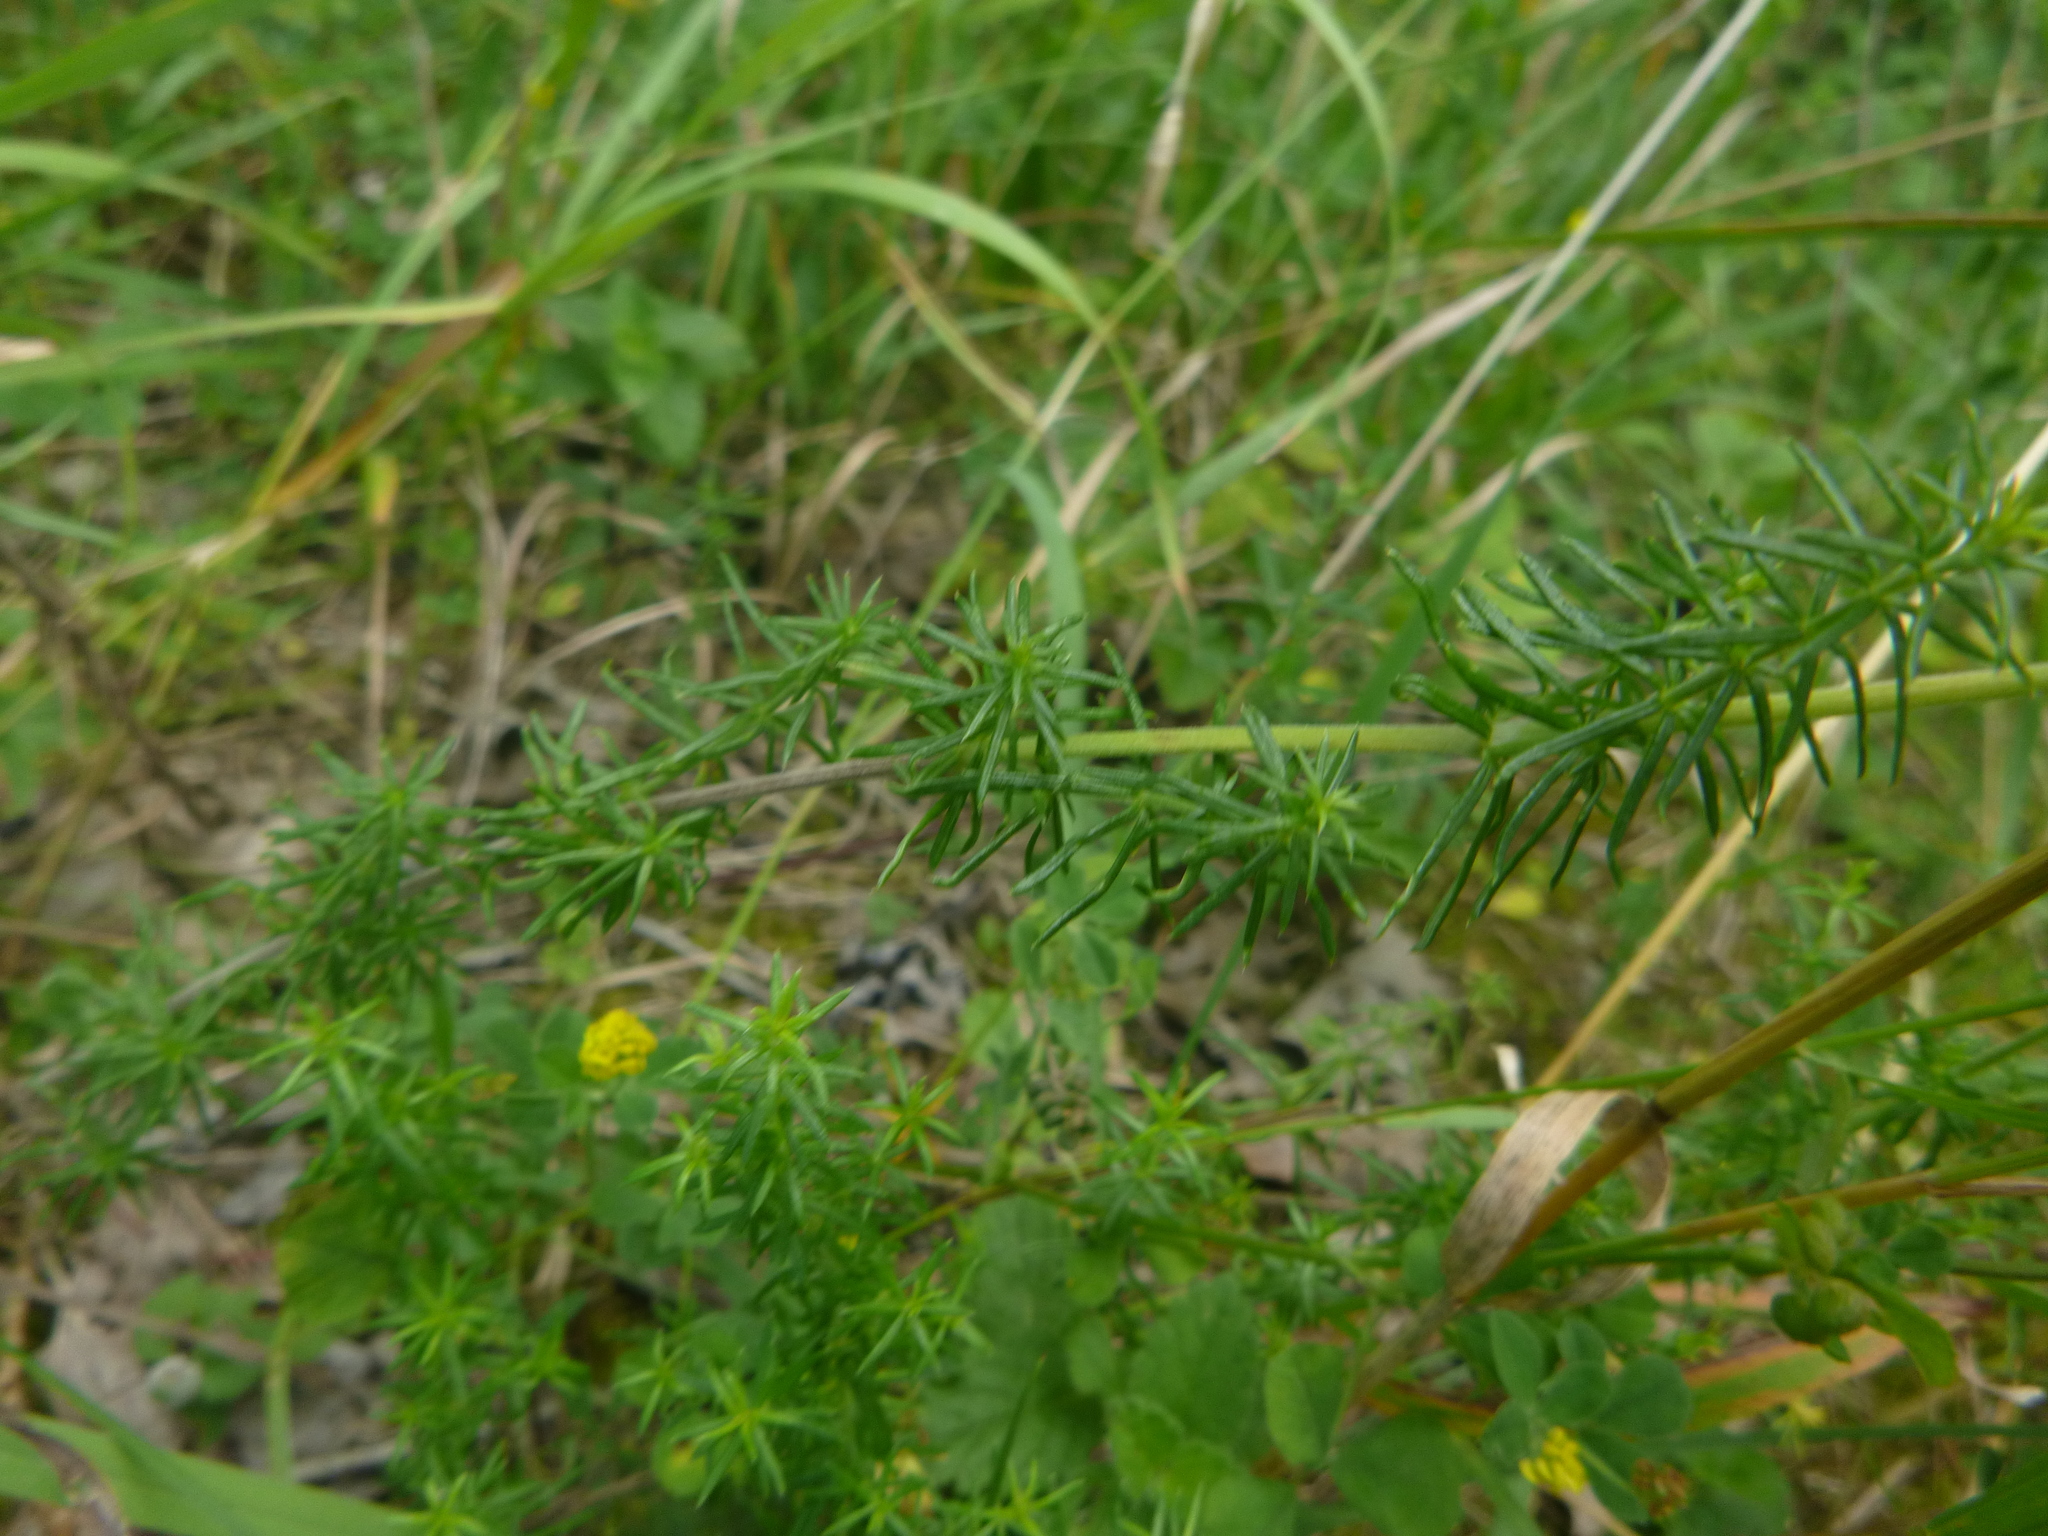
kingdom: Plantae
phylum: Tracheophyta
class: Magnoliopsida
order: Gentianales
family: Rubiaceae
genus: Galium
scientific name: Galium verum
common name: Lady's bedstraw
